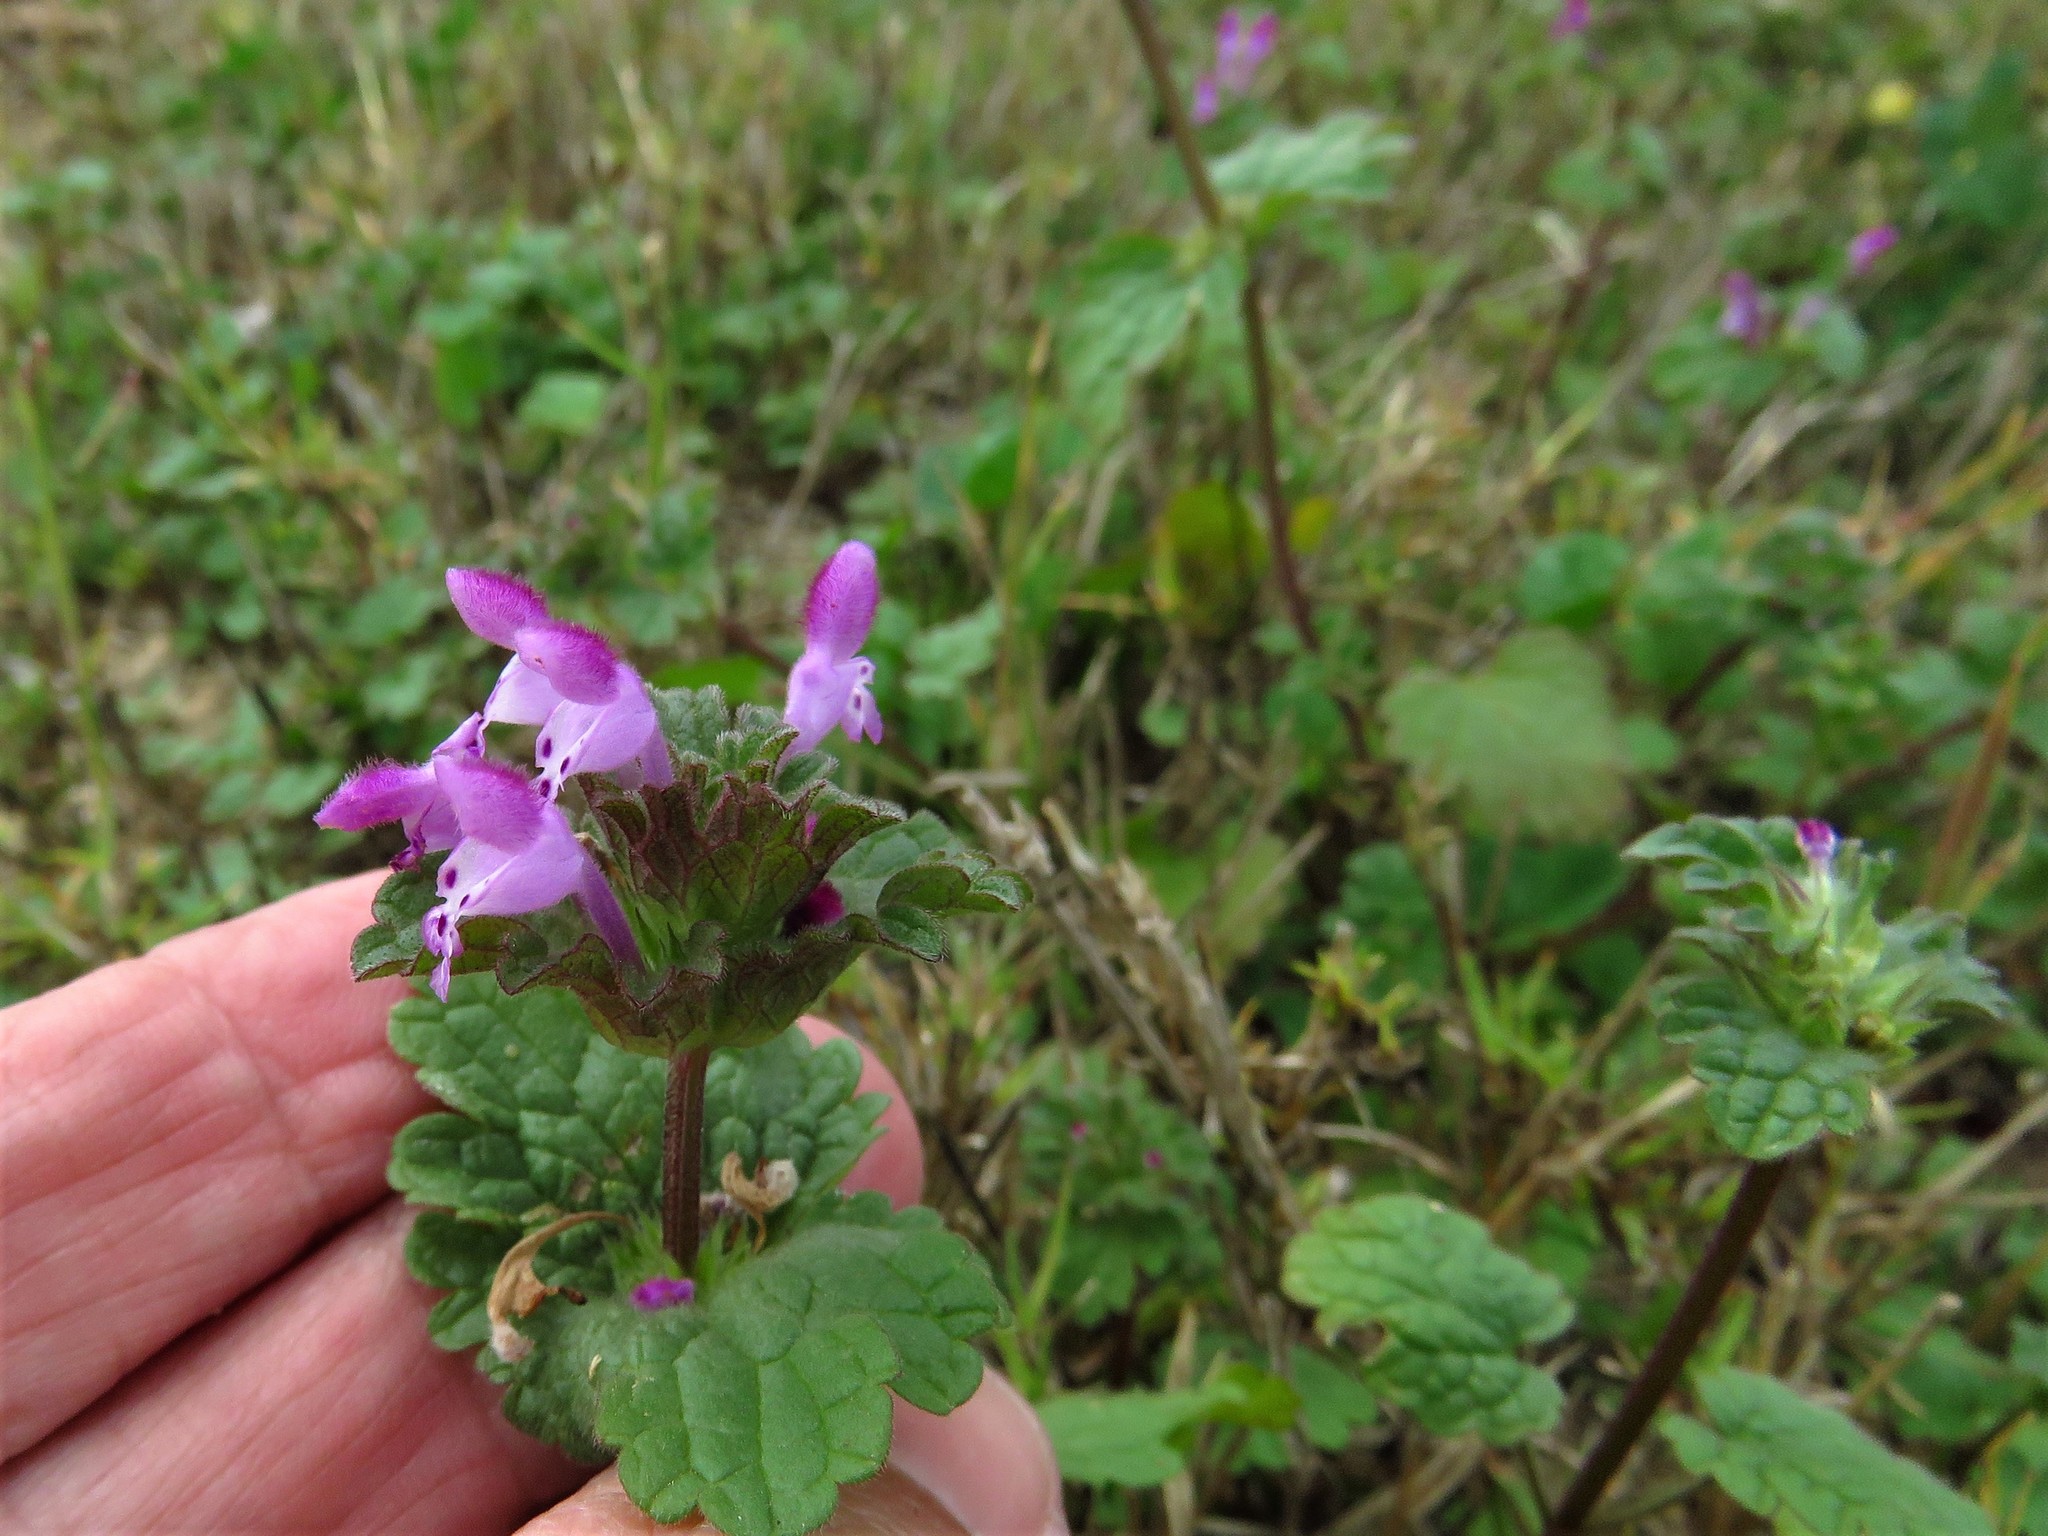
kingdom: Plantae
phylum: Tracheophyta
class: Magnoliopsida
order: Lamiales
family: Lamiaceae
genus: Lamium
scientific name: Lamium amplexicaule
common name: Henbit dead-nettle
